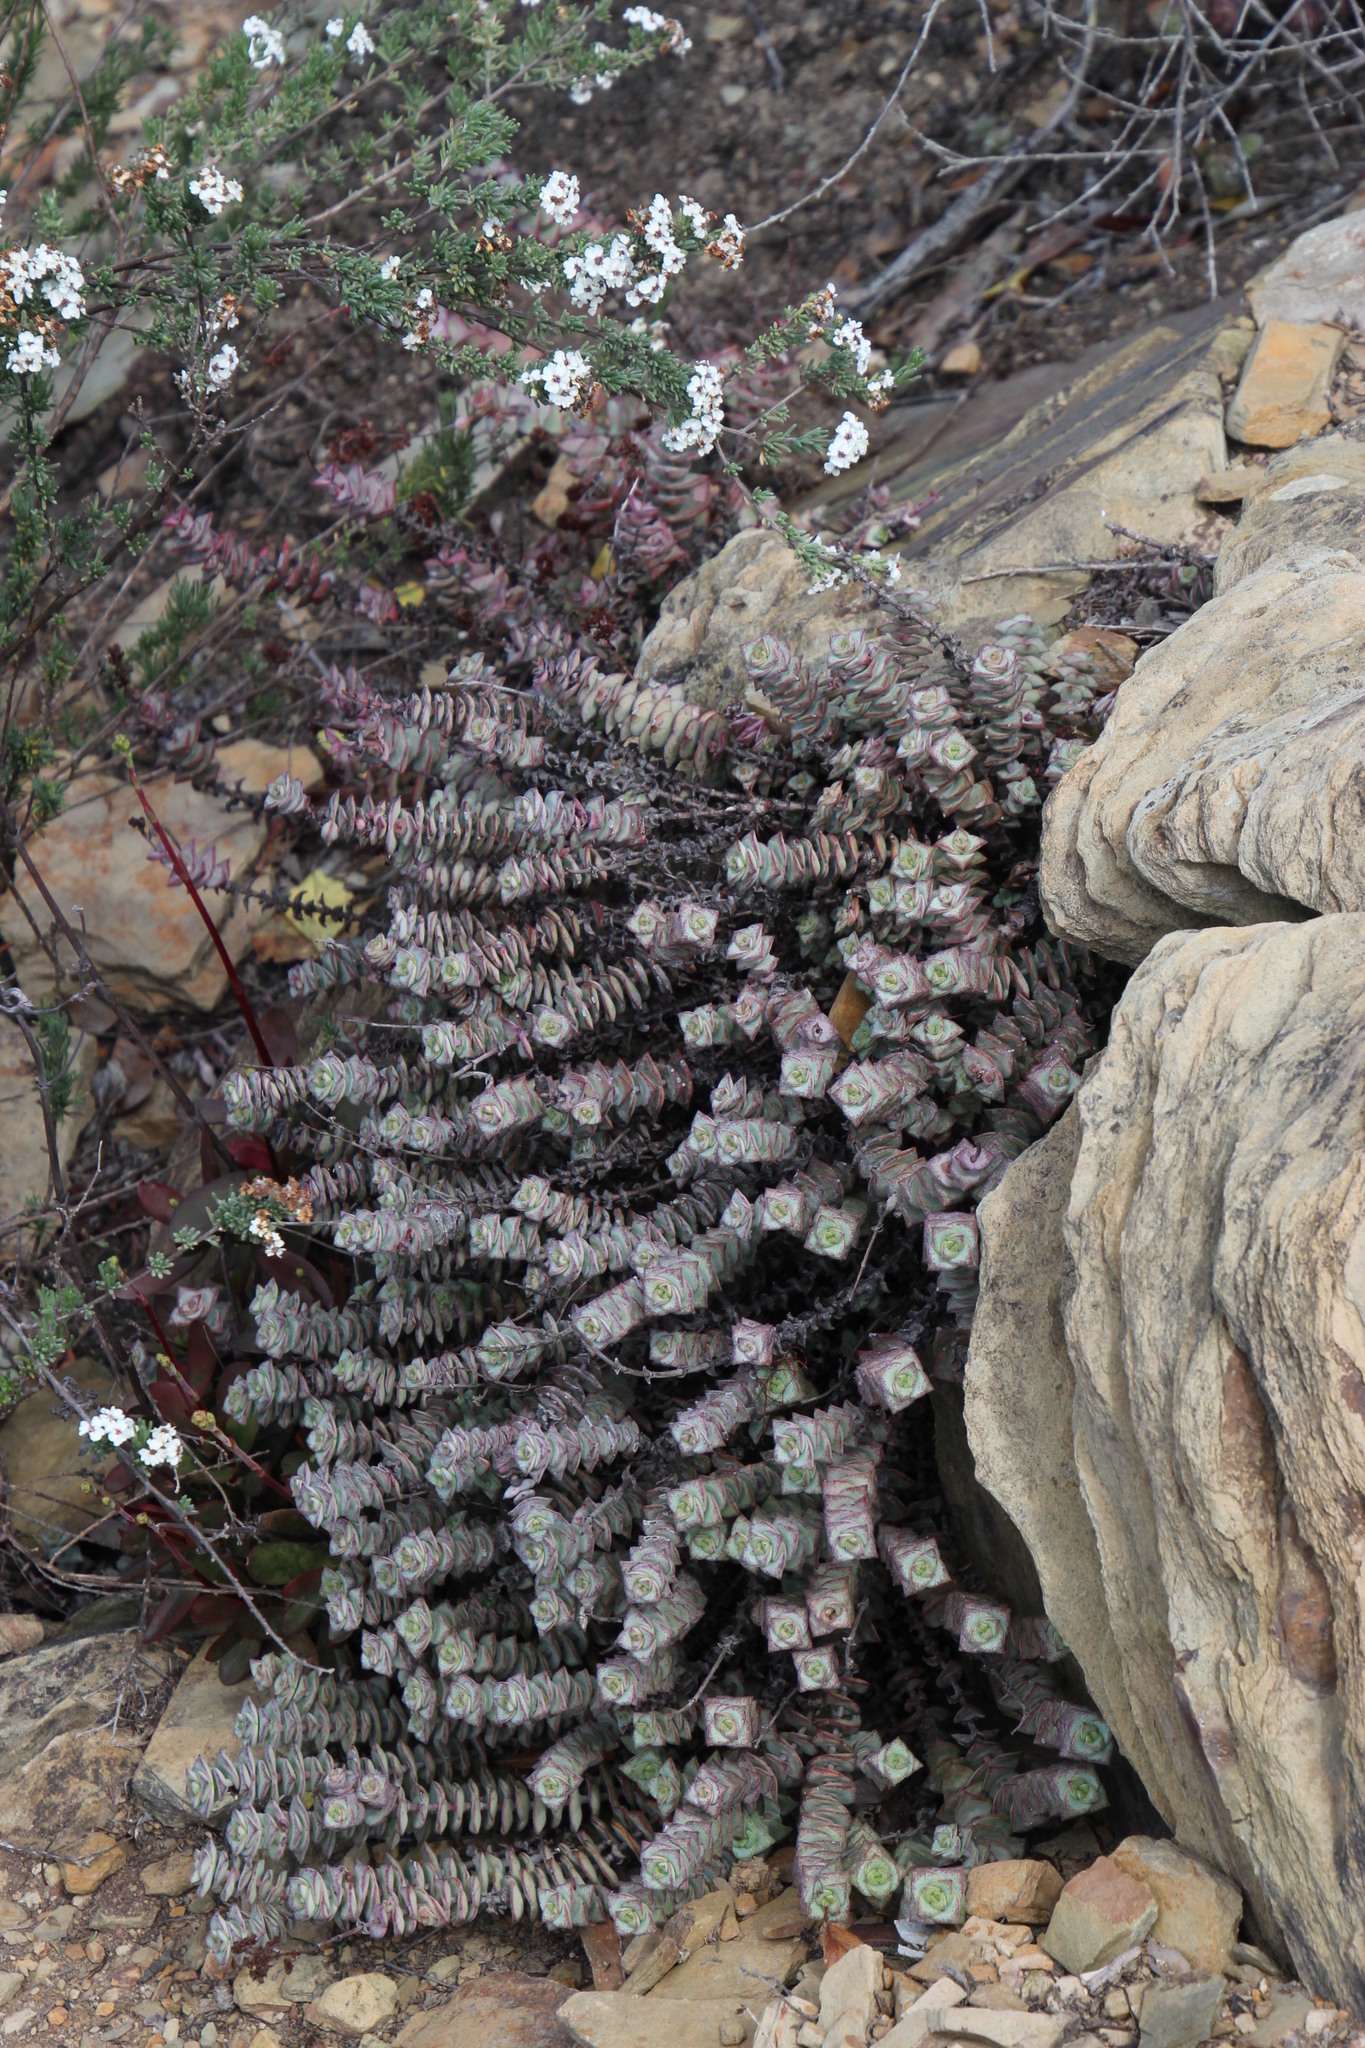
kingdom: Plantae
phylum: Tracheophyta
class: Magnoliopsida
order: Saxifragales
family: Crassulaceae
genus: Crassula
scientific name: Crassula perforata
